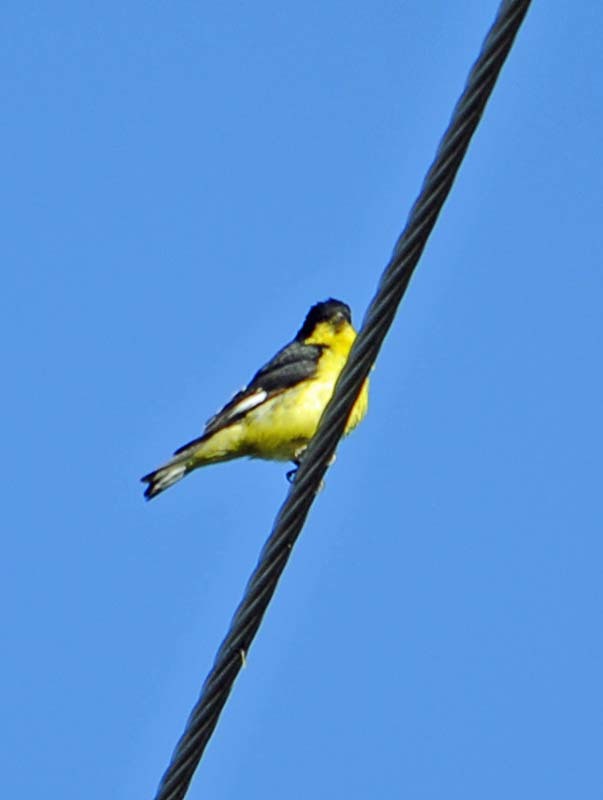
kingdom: Animalia
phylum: Chordata
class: Aves
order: Passeriformes
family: Fringillidae
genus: Spinus
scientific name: Spinus psaltria
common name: Lesser goldfinch
